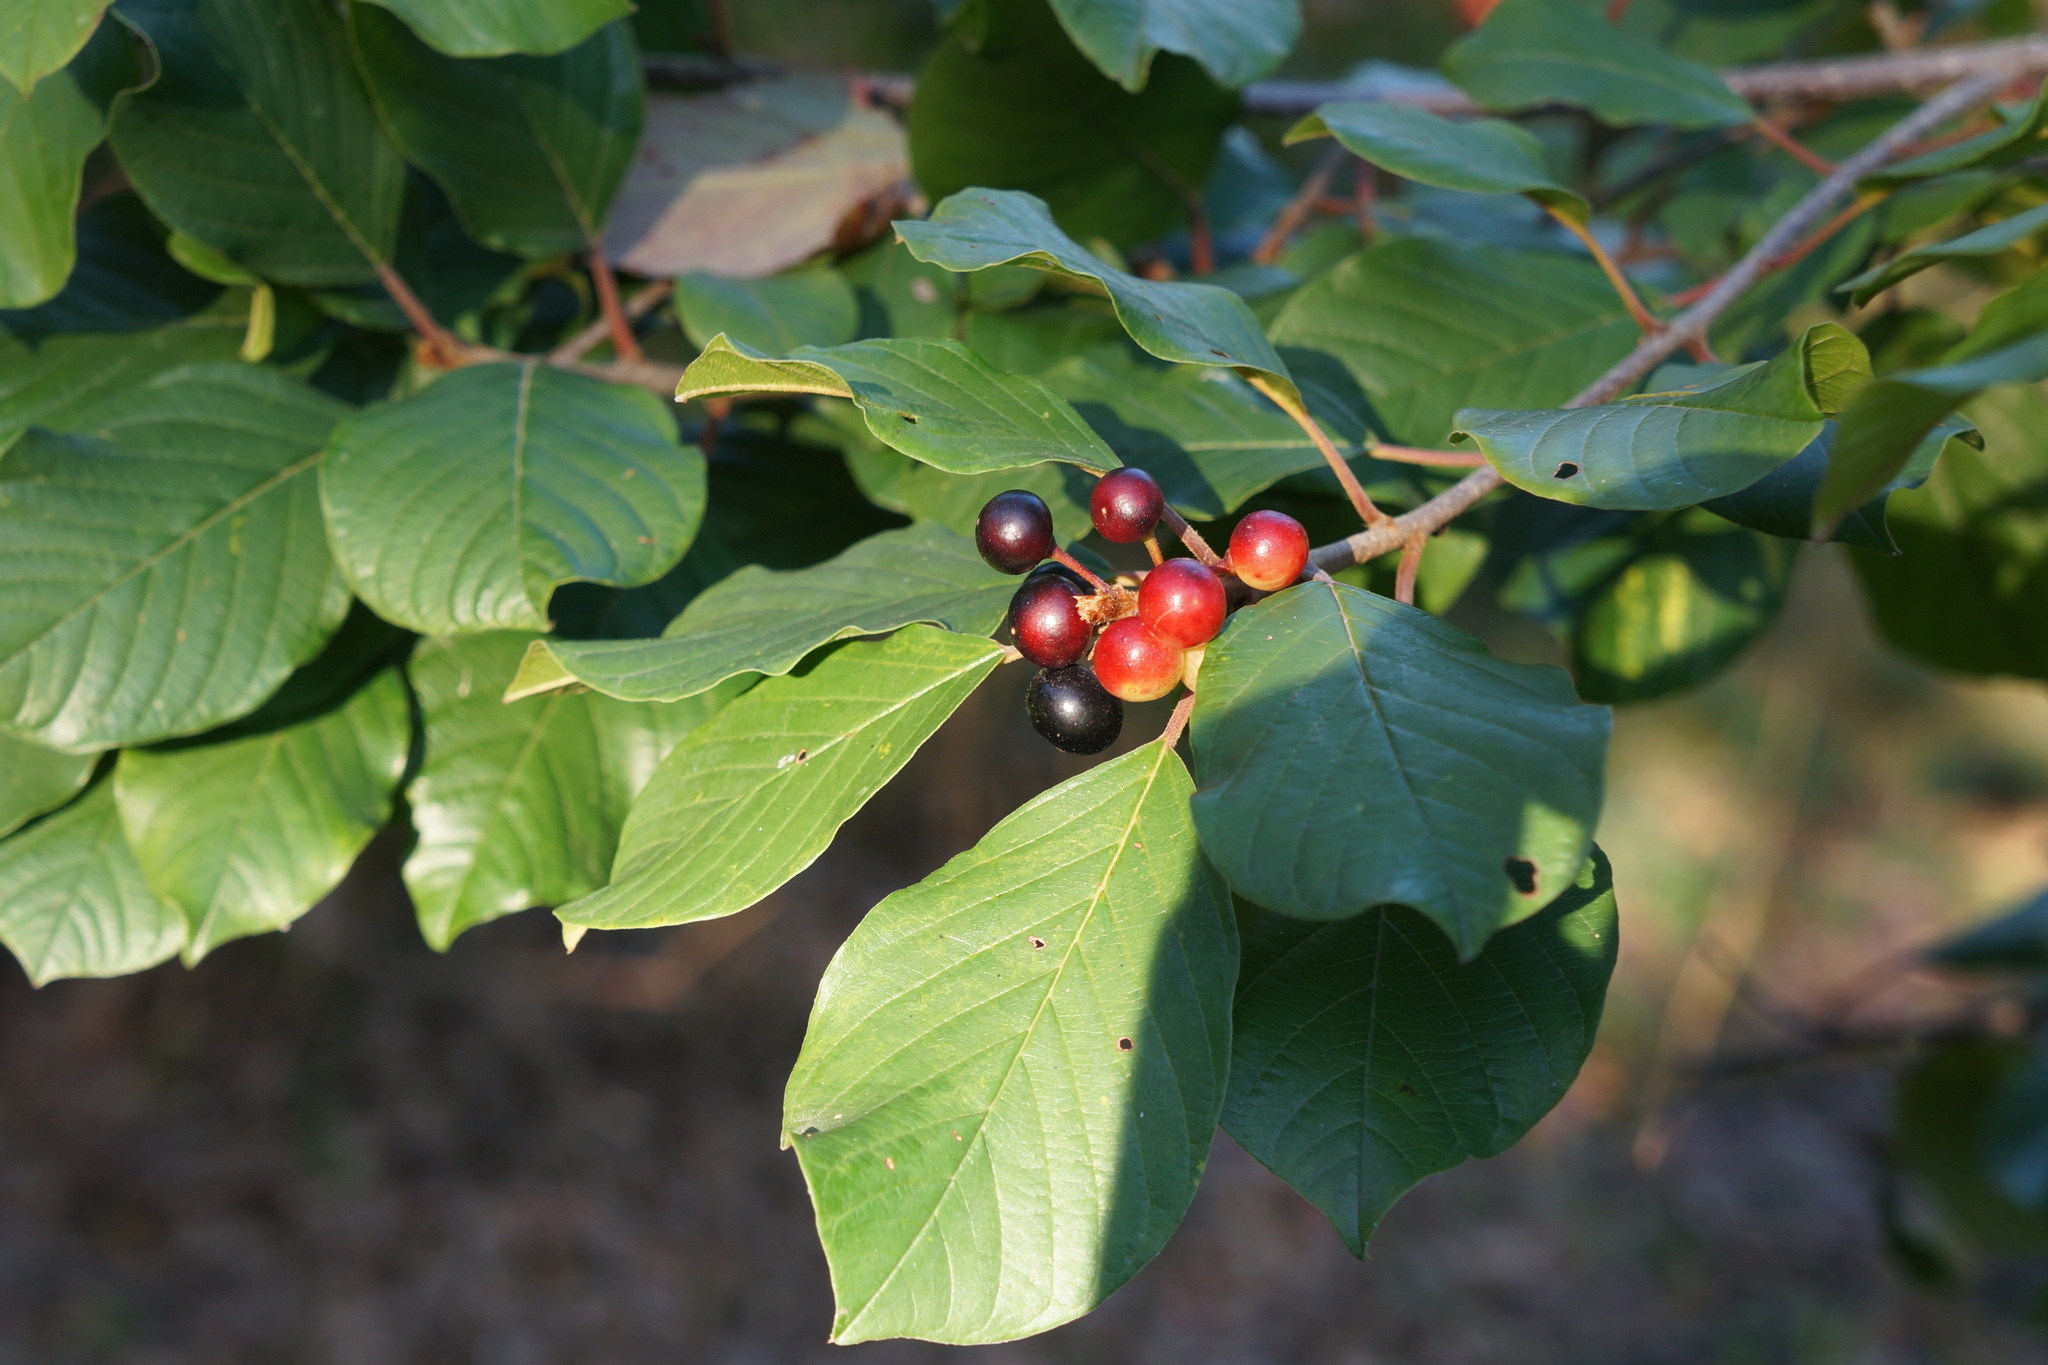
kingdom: Plantae
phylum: Tracheophyta
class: Magnoliopsida
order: Rosales
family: Rhamnaceae
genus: Frangula
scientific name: Frangula alnus
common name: Alder buckthorn
